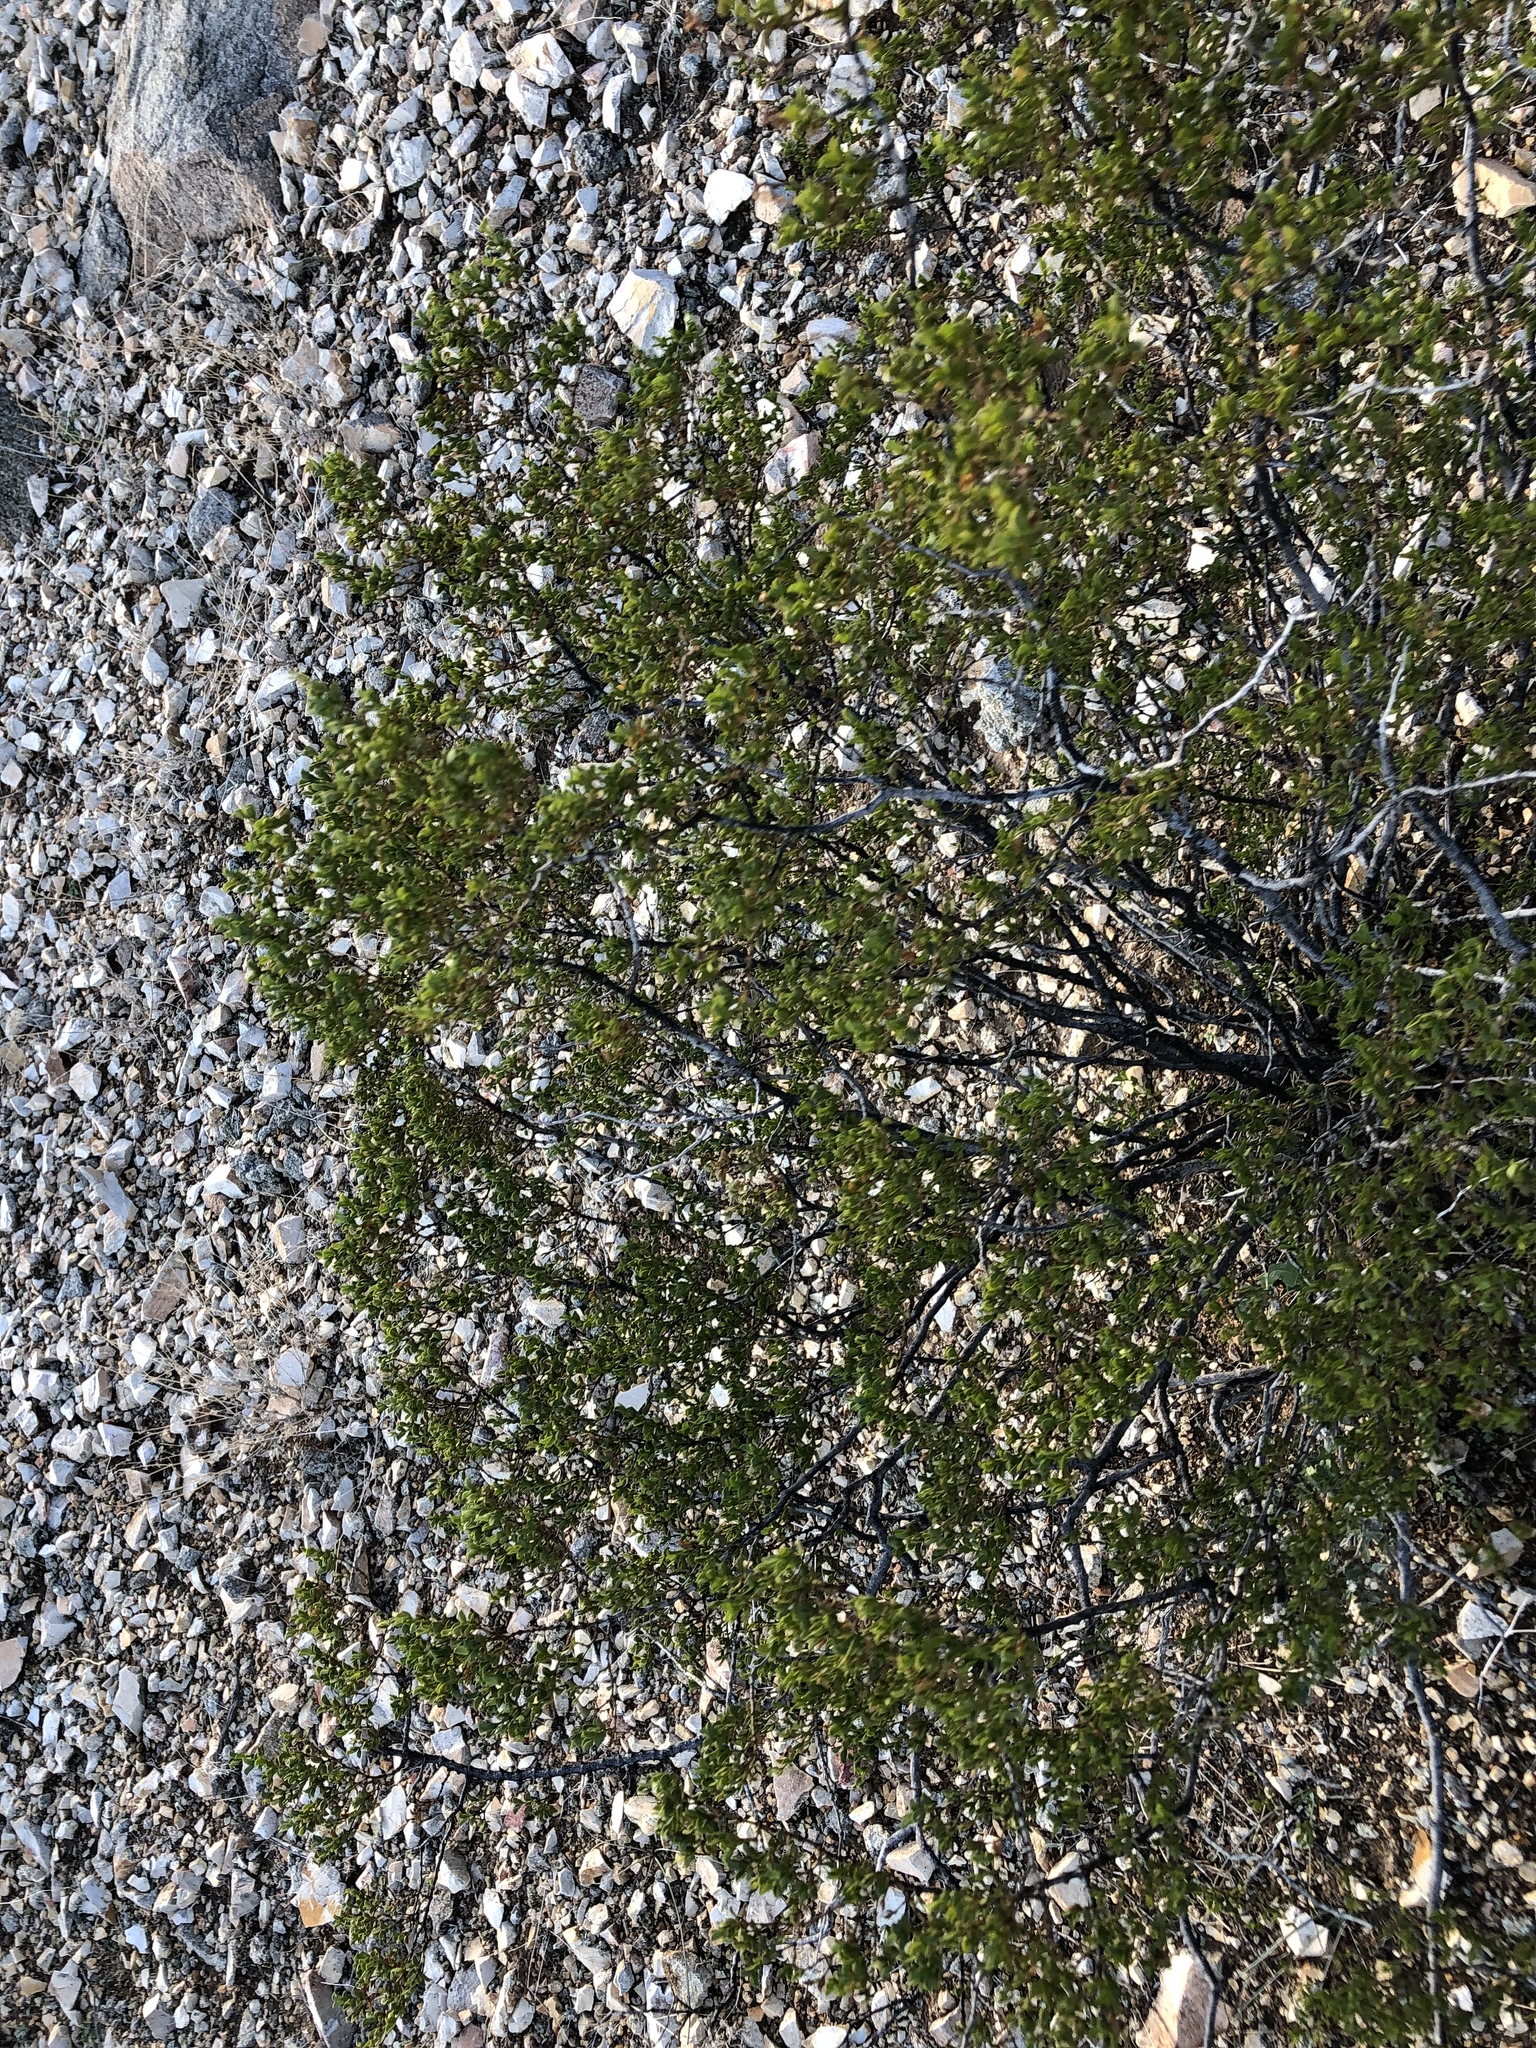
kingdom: Plantae
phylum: Tracheophyta
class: Magnoliopsida
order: Zygophyllales
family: Zygophyllaceae
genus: Larrea
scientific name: Larrea tridentata
